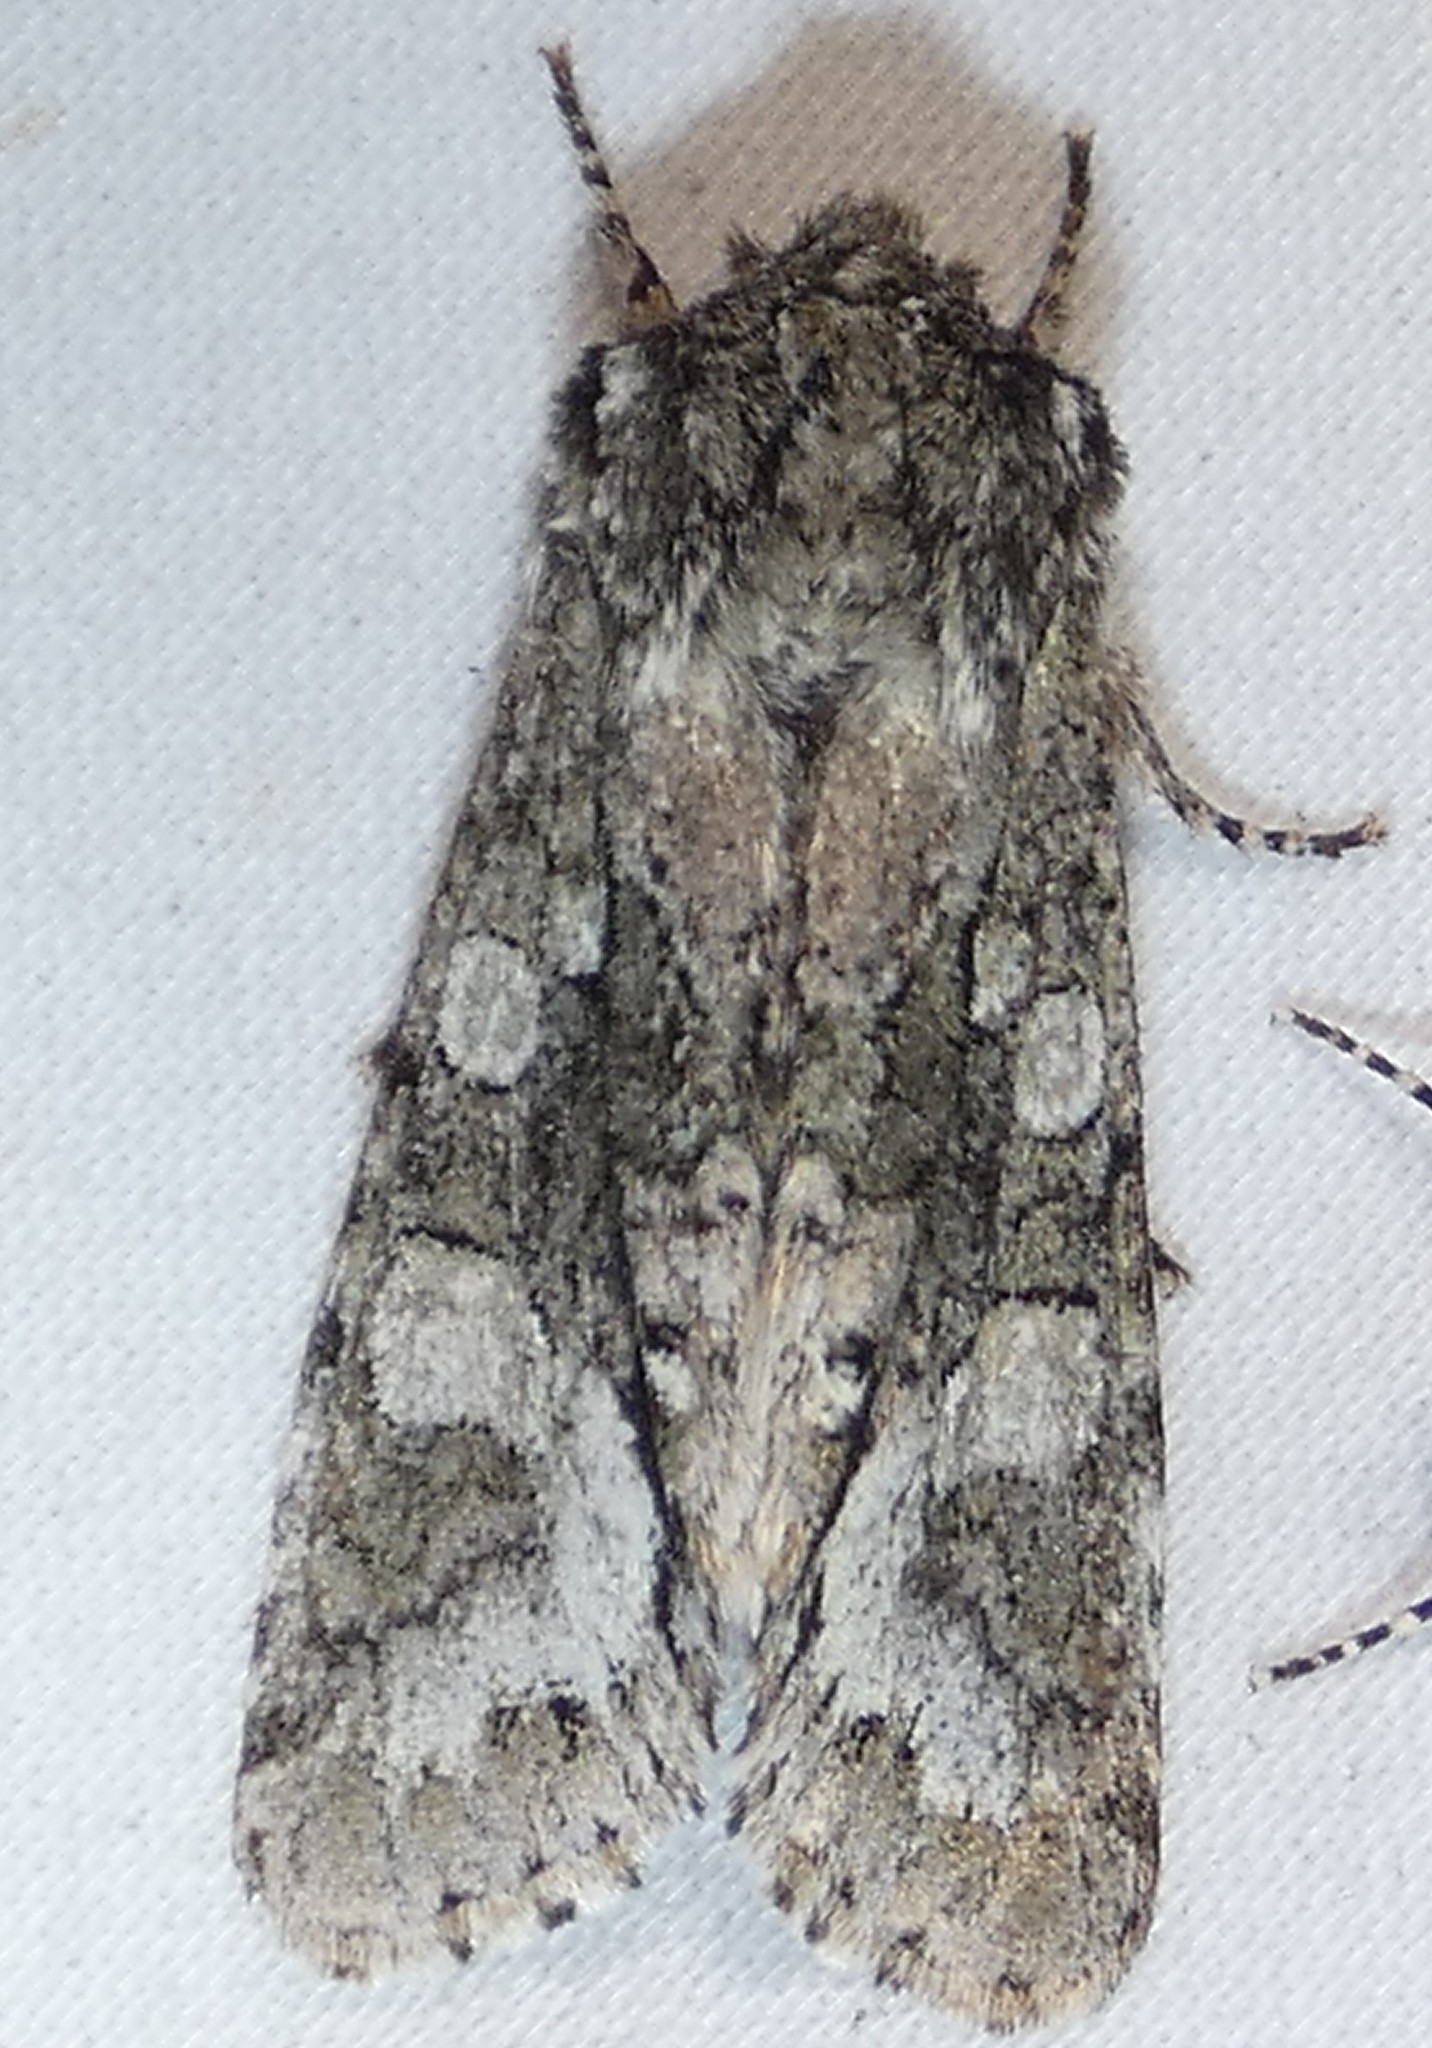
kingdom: Animalia
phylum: Arthropoda
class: Insecta
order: Lepidoptera
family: Noctuidae
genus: Psaphida
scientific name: Psaphida resumens
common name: Figure-eight sallow
